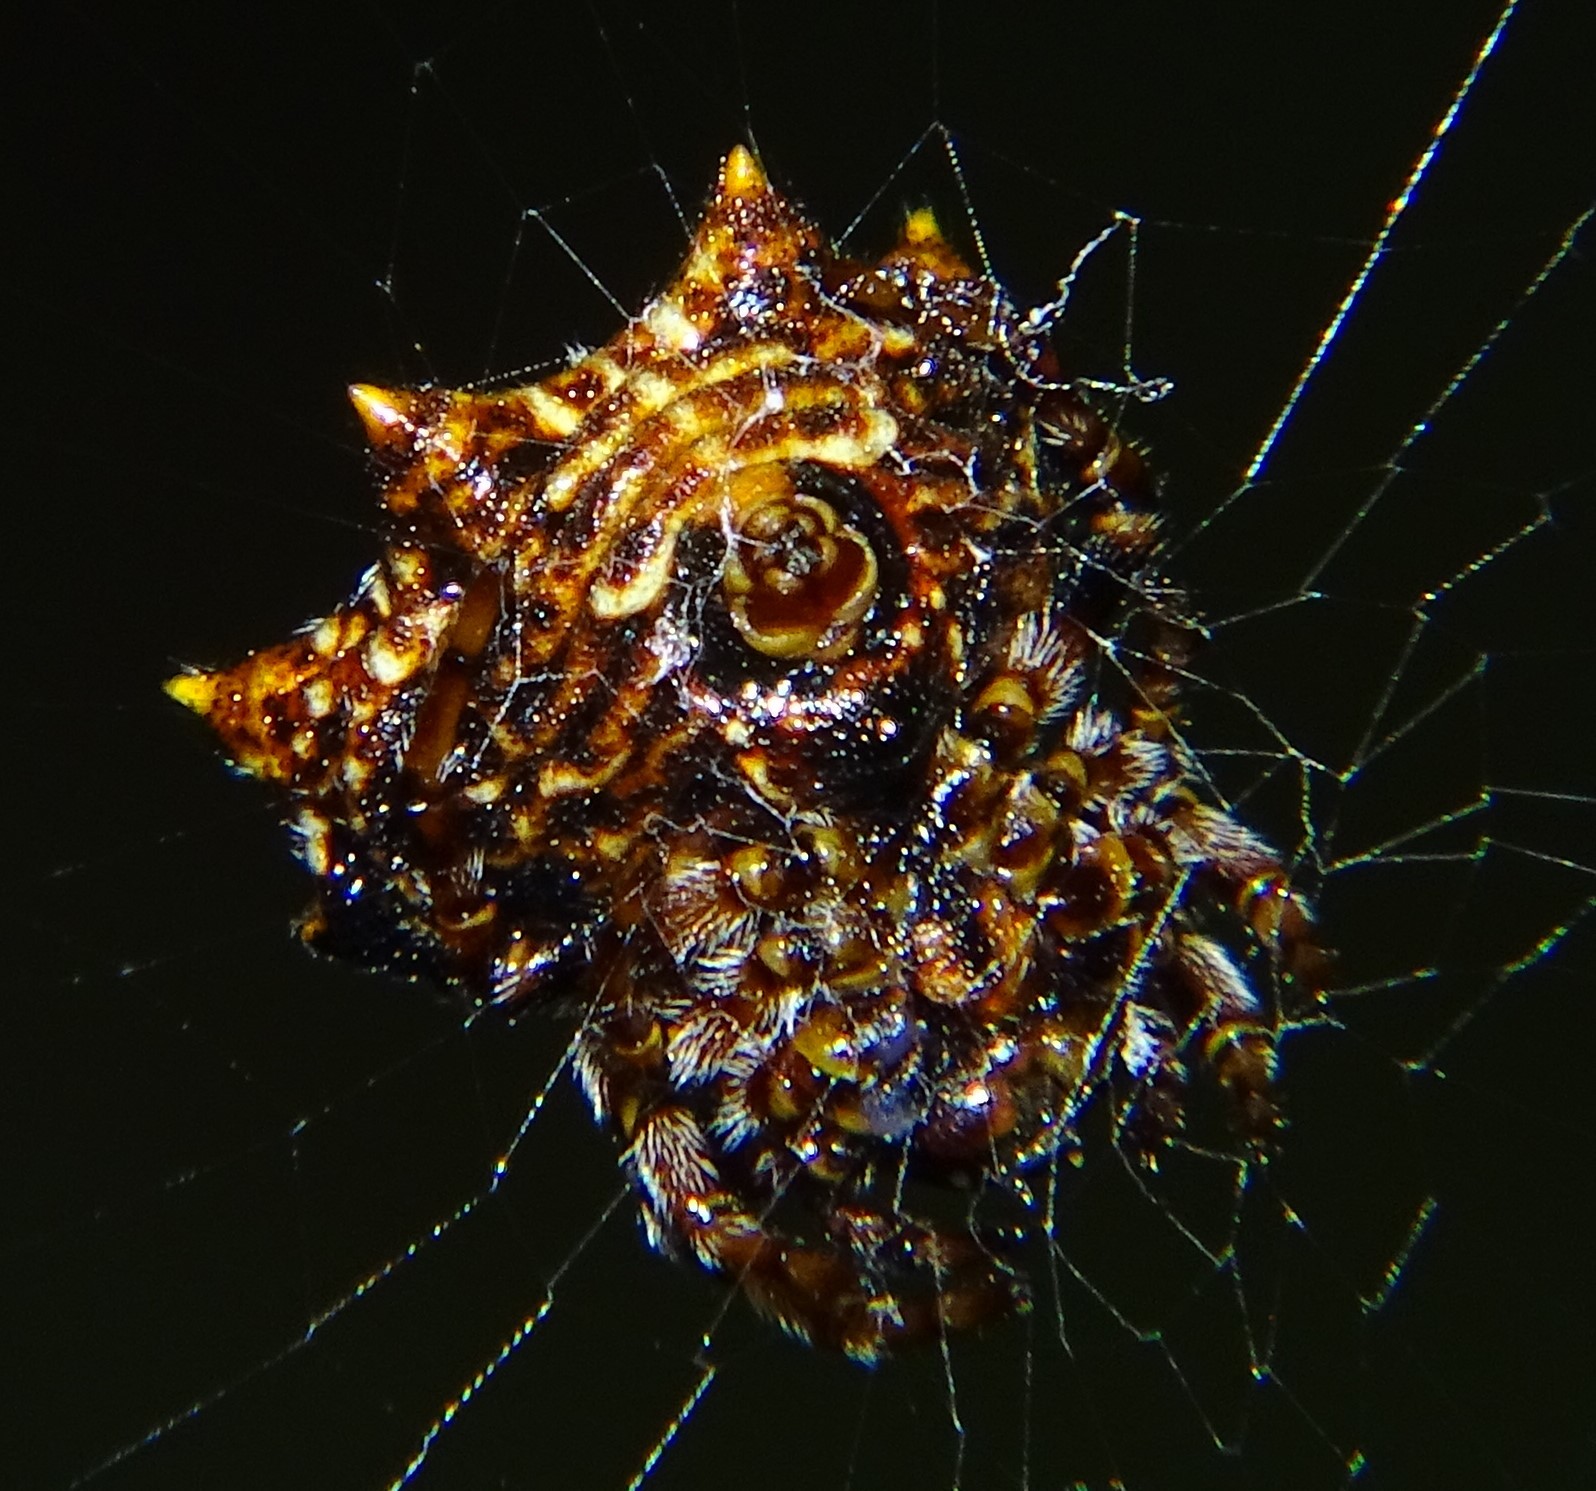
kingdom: Animalia
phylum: Arthropoda
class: Arachnida
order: Araneae
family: Araneidae
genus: Thelacantha
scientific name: Thelacantha brevispina
